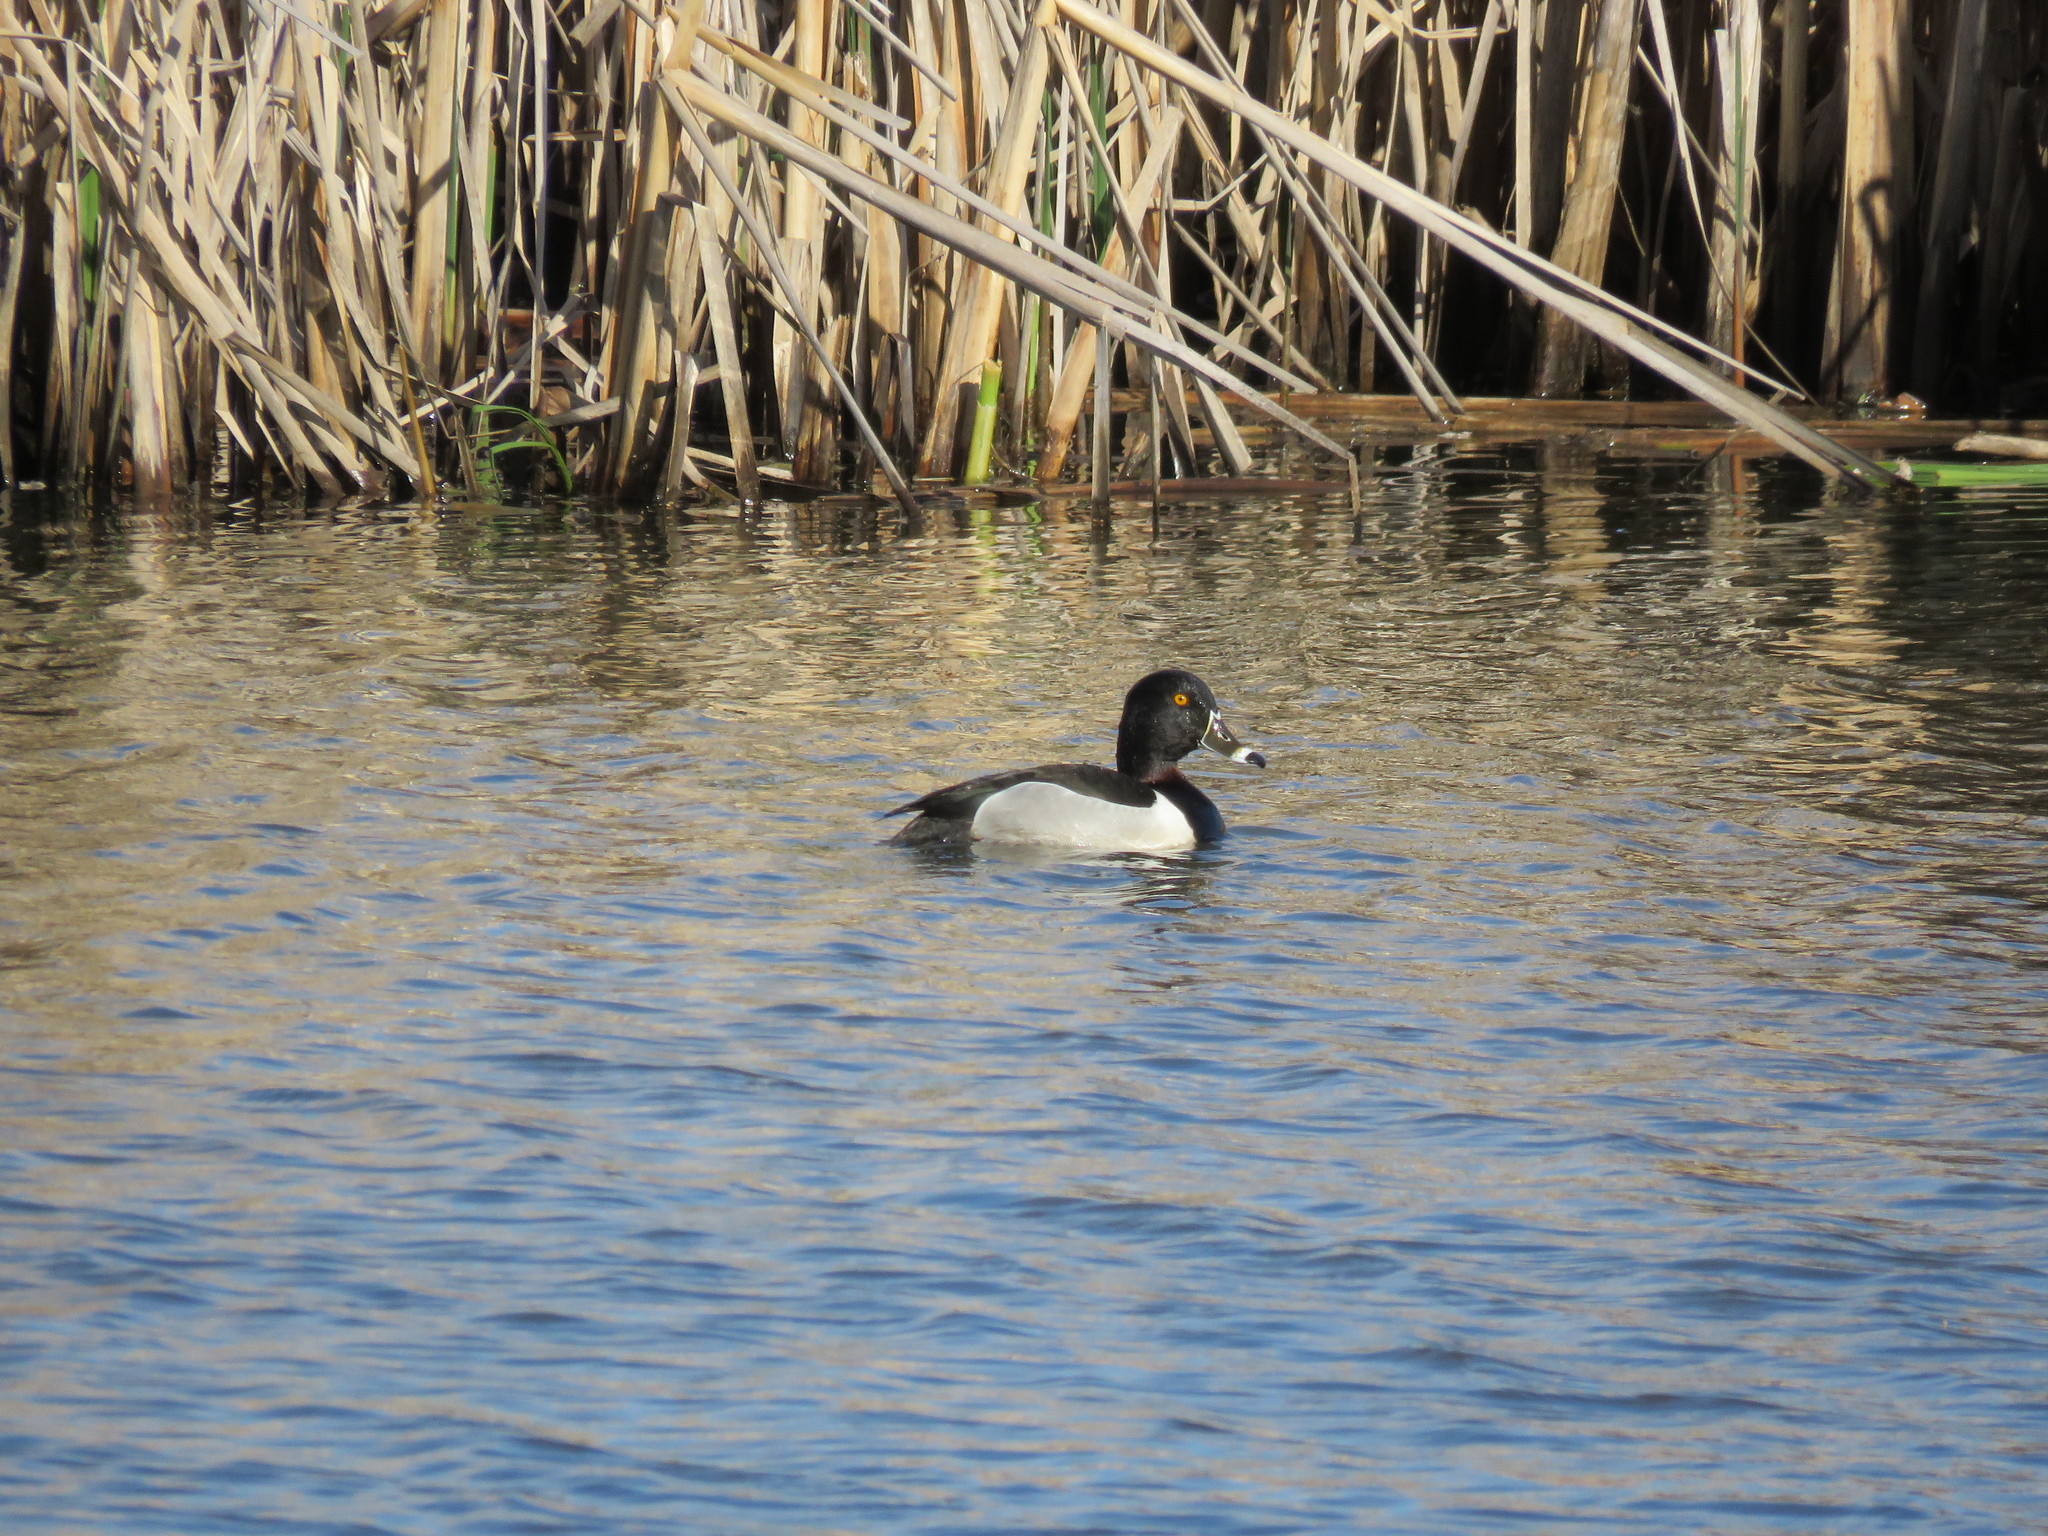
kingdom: Animalia
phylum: Chordata
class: Aves
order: Anseriformes
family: Anatidae
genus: Aythya
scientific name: Aythya collaris
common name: Ring-necked duck
